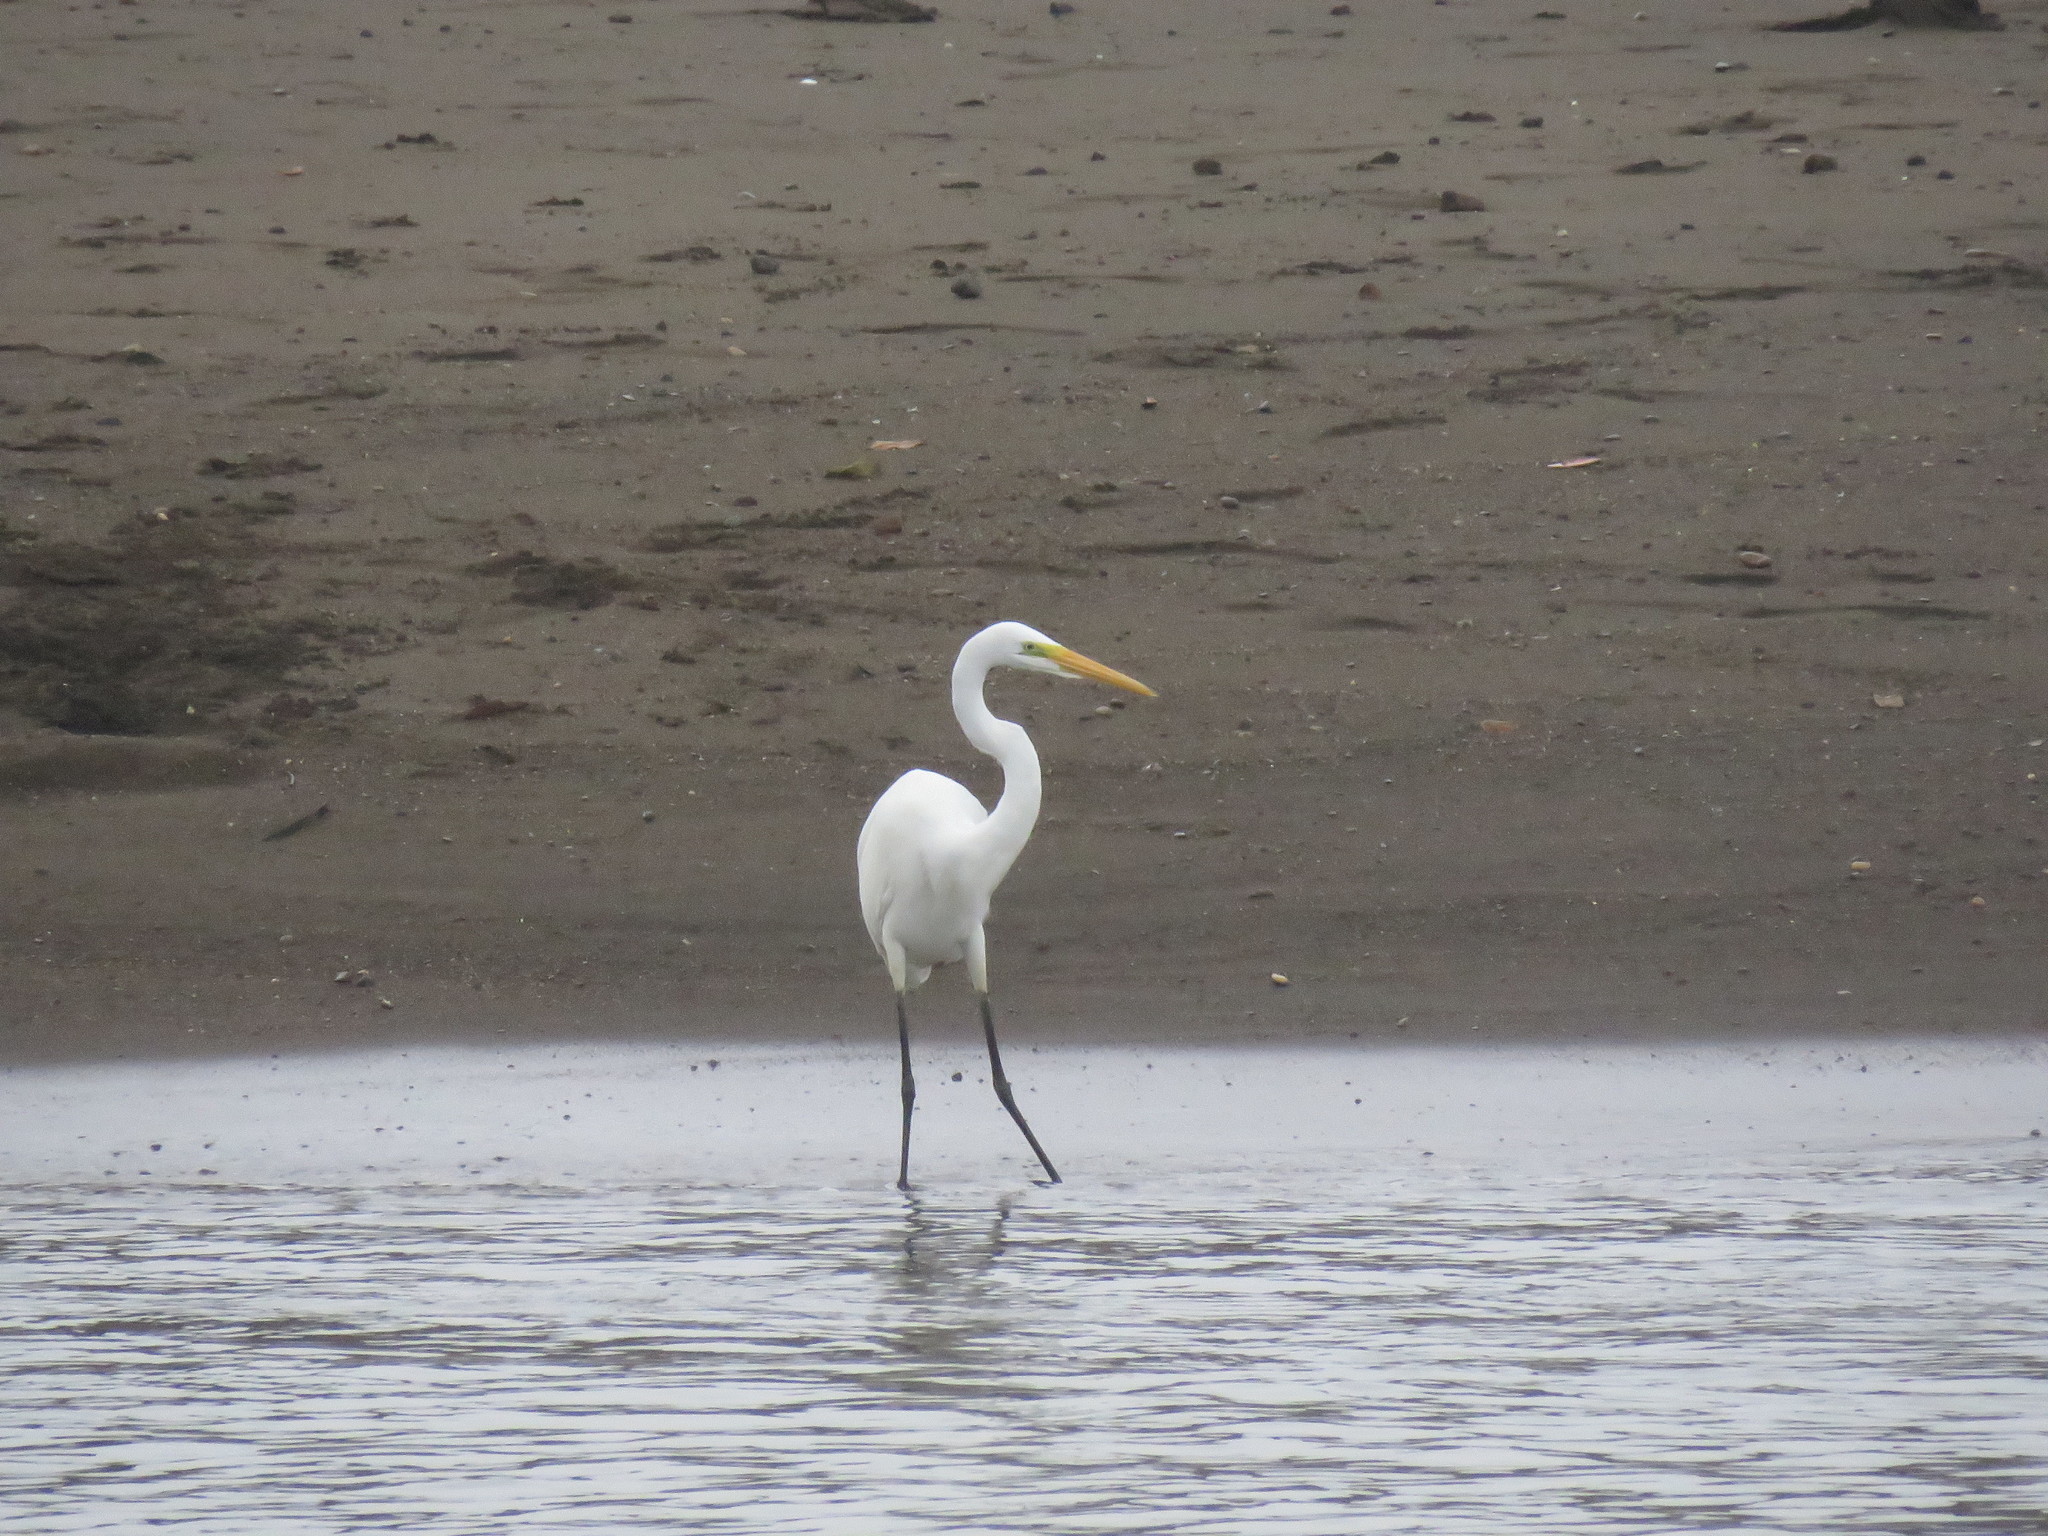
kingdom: Animalia
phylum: Chordata
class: Aves
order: Pelecaniformes
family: Ardeidae
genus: Ardea
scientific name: Ardea alba
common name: Great egret
